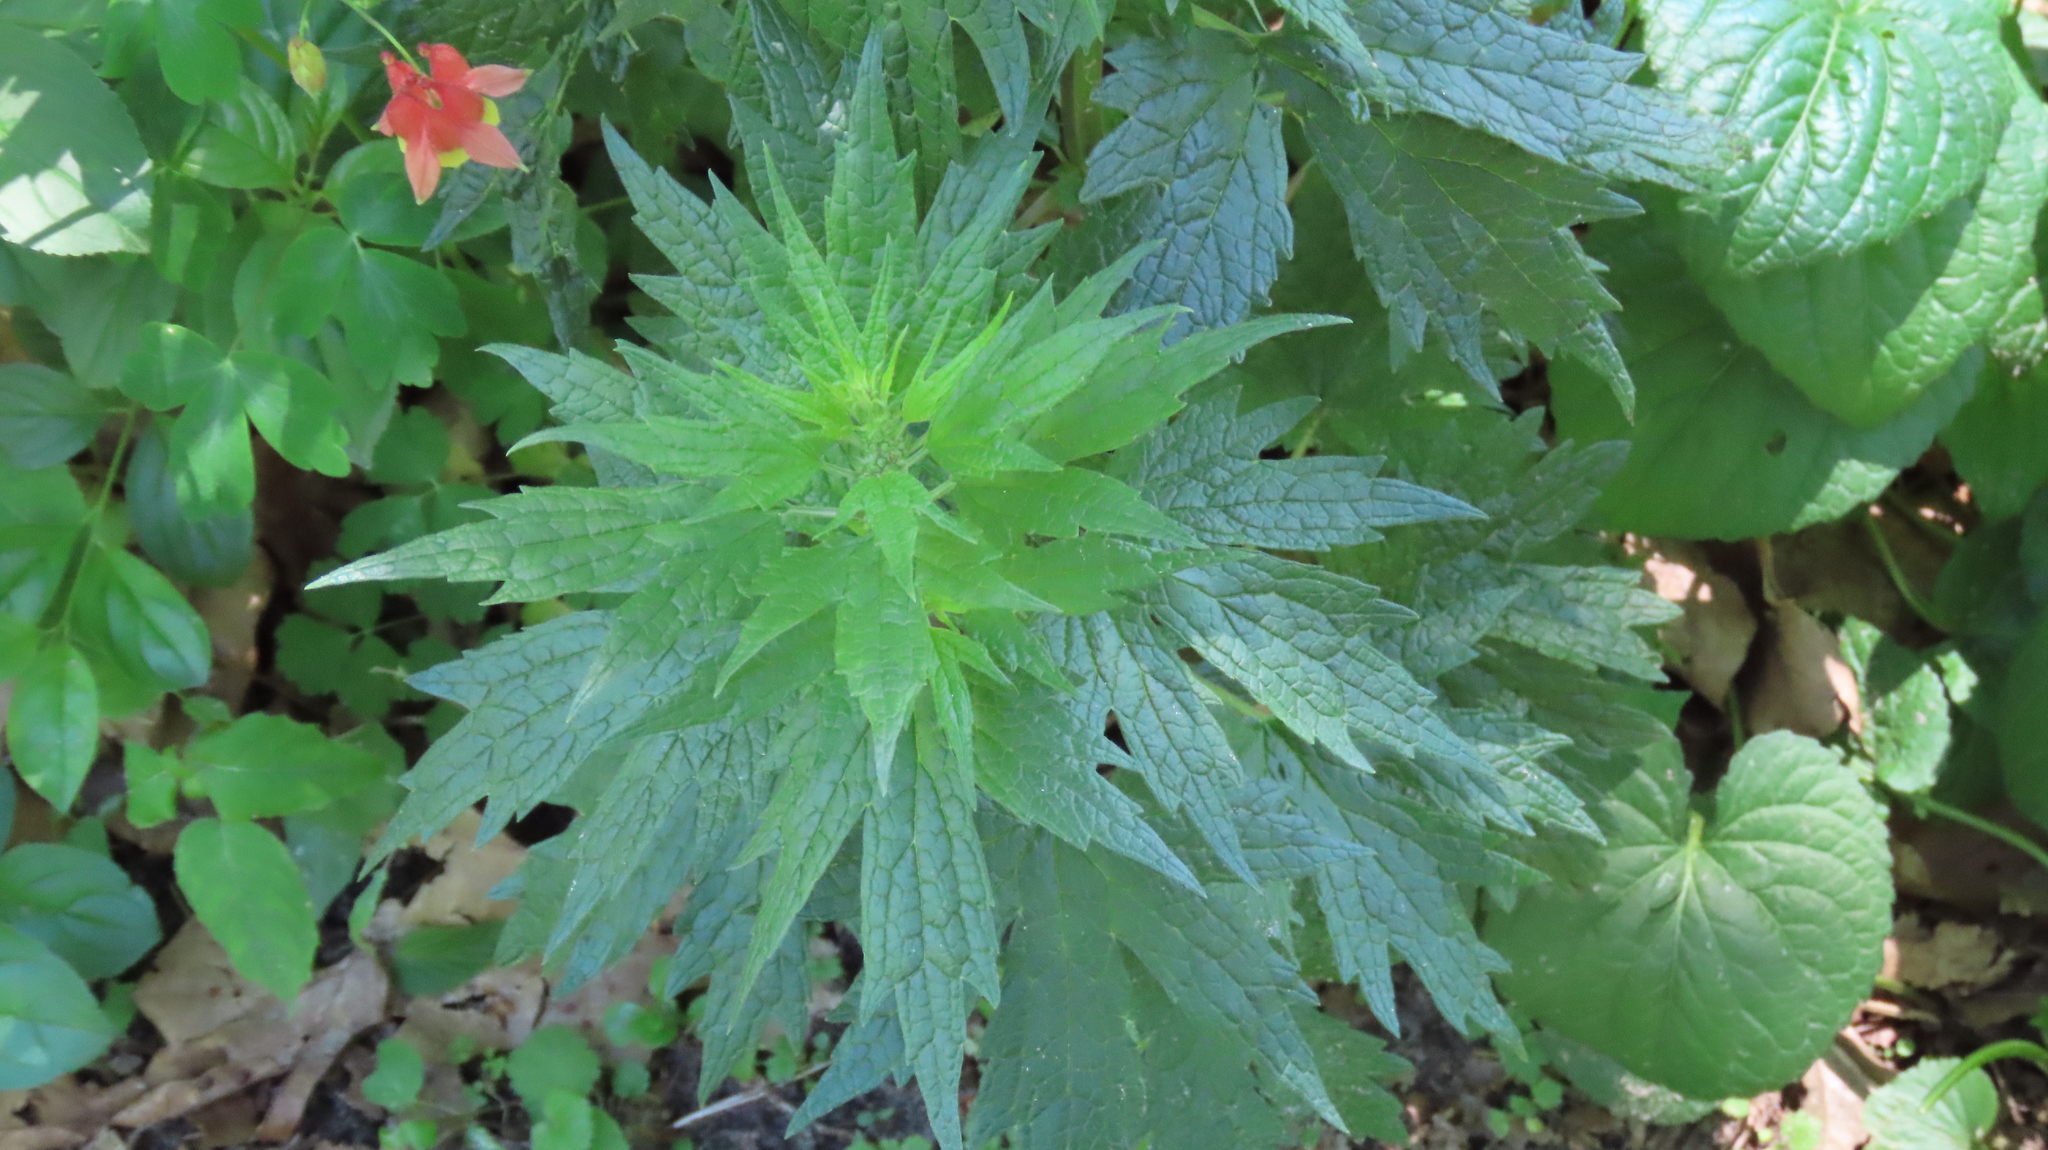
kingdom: Plantae
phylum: Tracheophyta
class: Magnoliopsida
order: Lamiales
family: Lamiaceae
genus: Leonurus
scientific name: Leonurus cardiaca
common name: Motherwort
